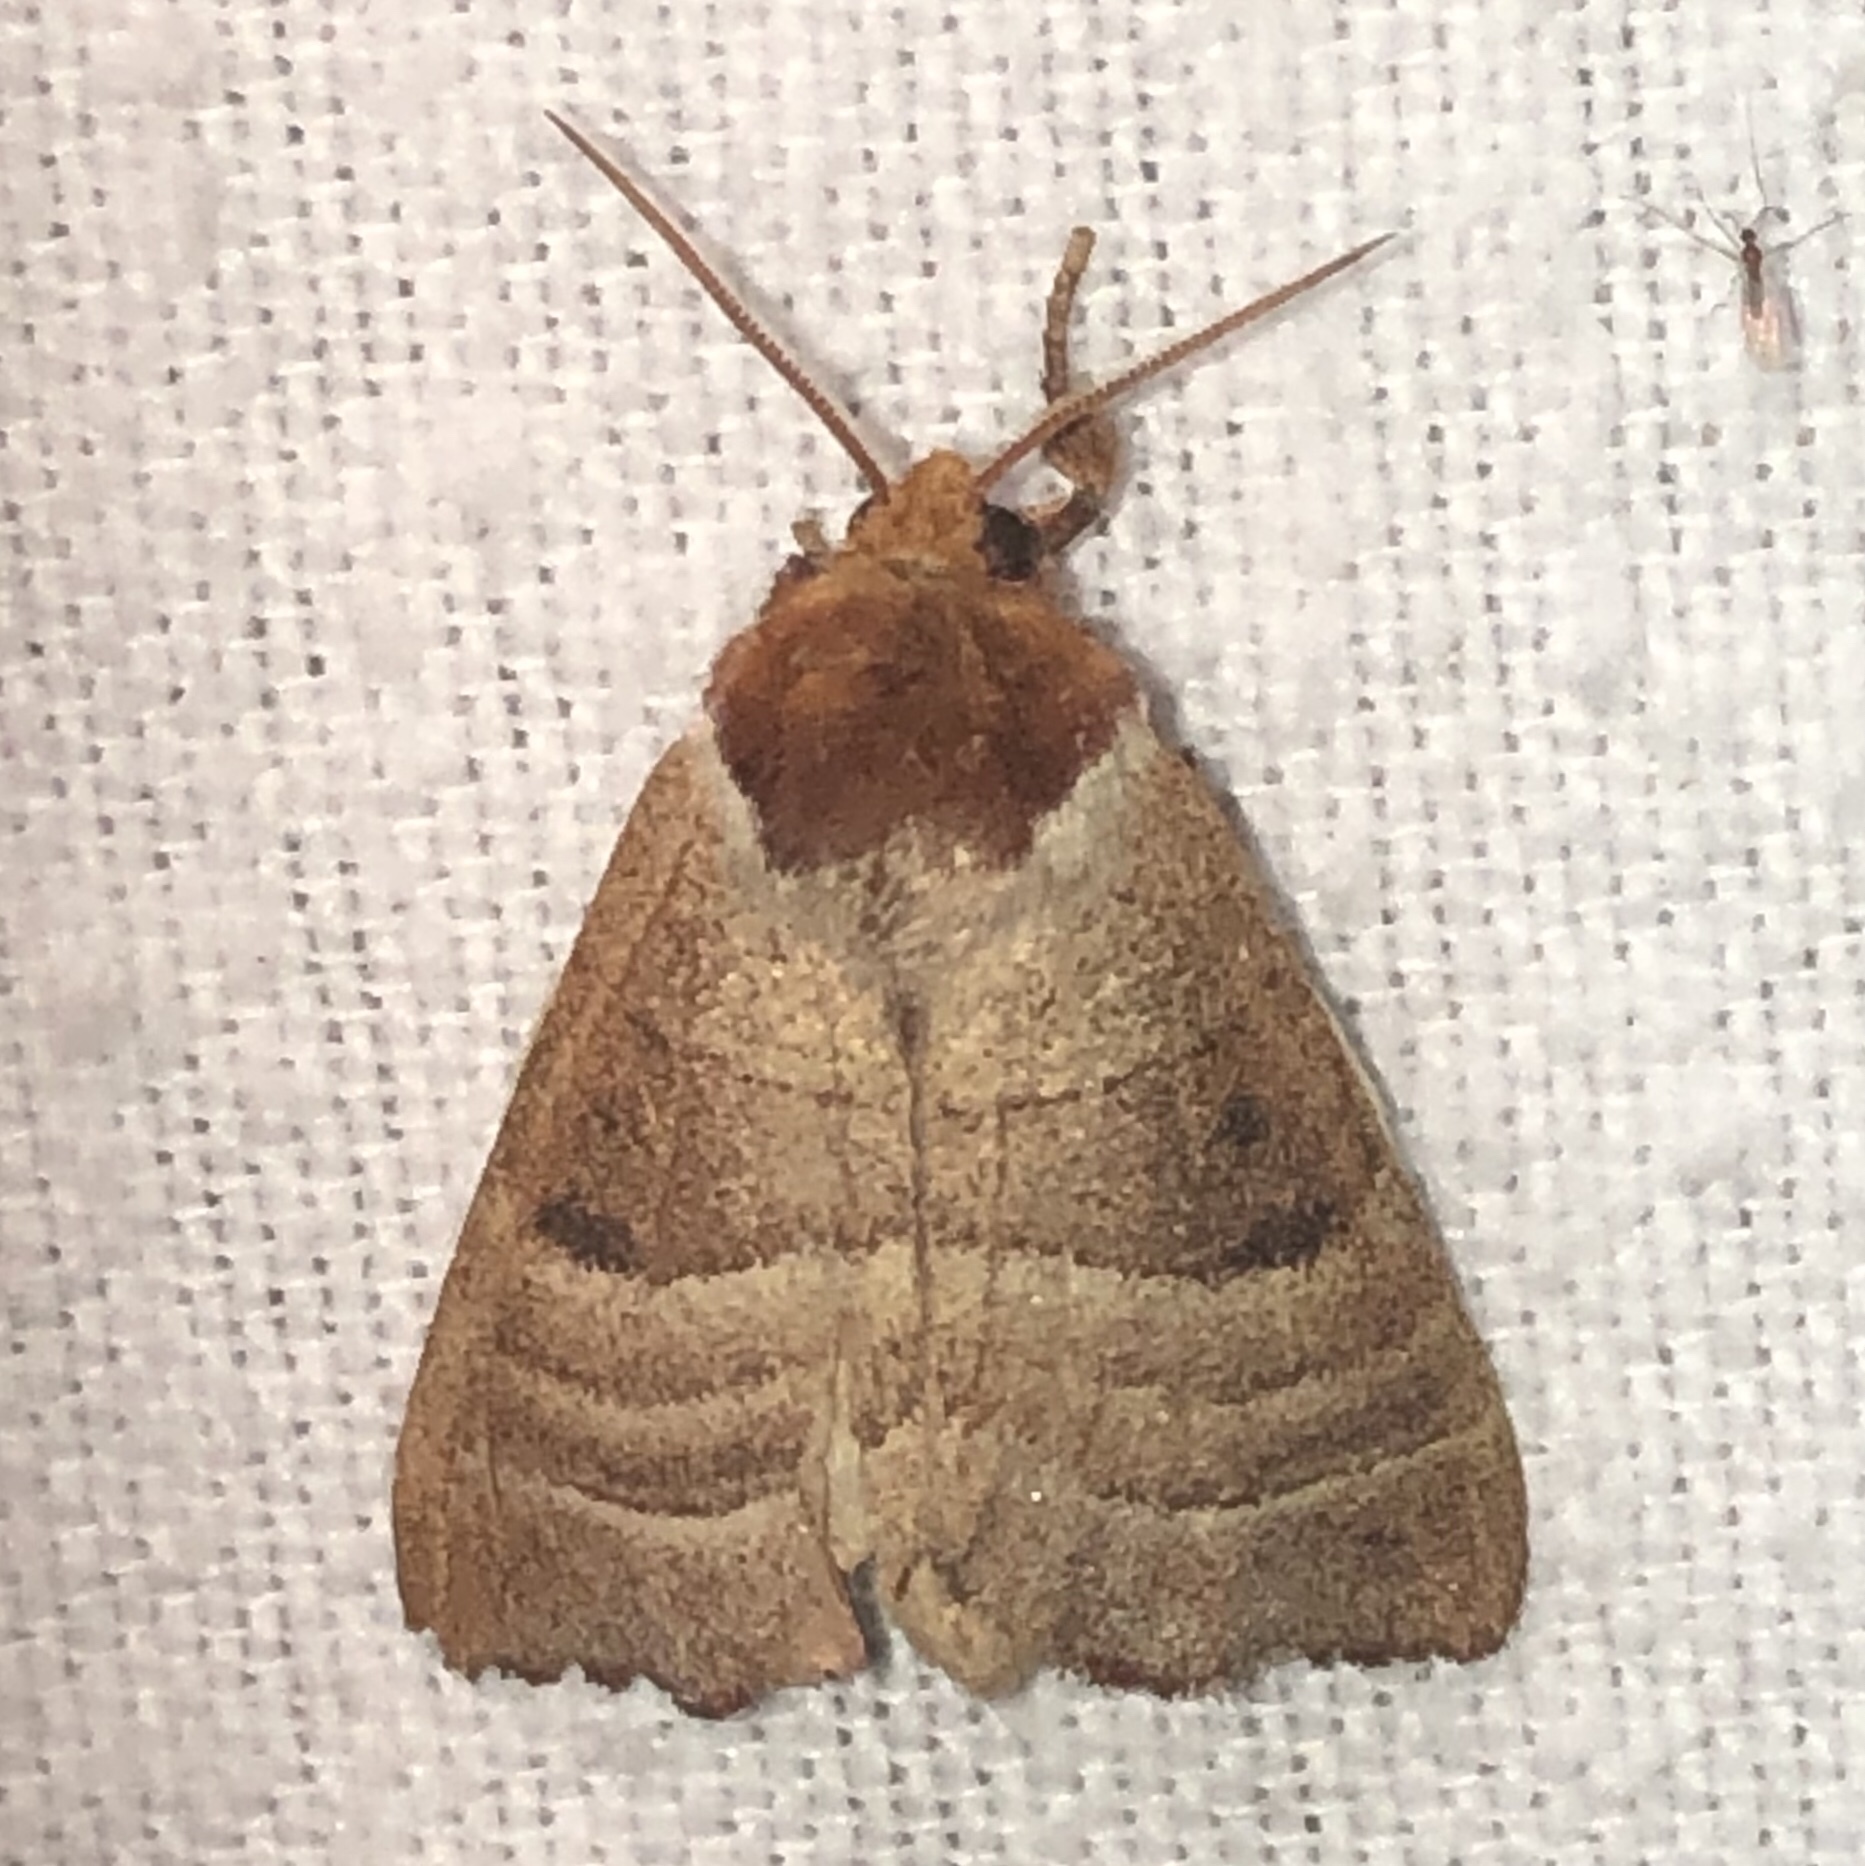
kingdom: Animalia
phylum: Arthropoda
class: Insecta
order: Lepidoptera
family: Notodontidae
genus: Datana
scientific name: Datana integerrima
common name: Walnut caterpillar
